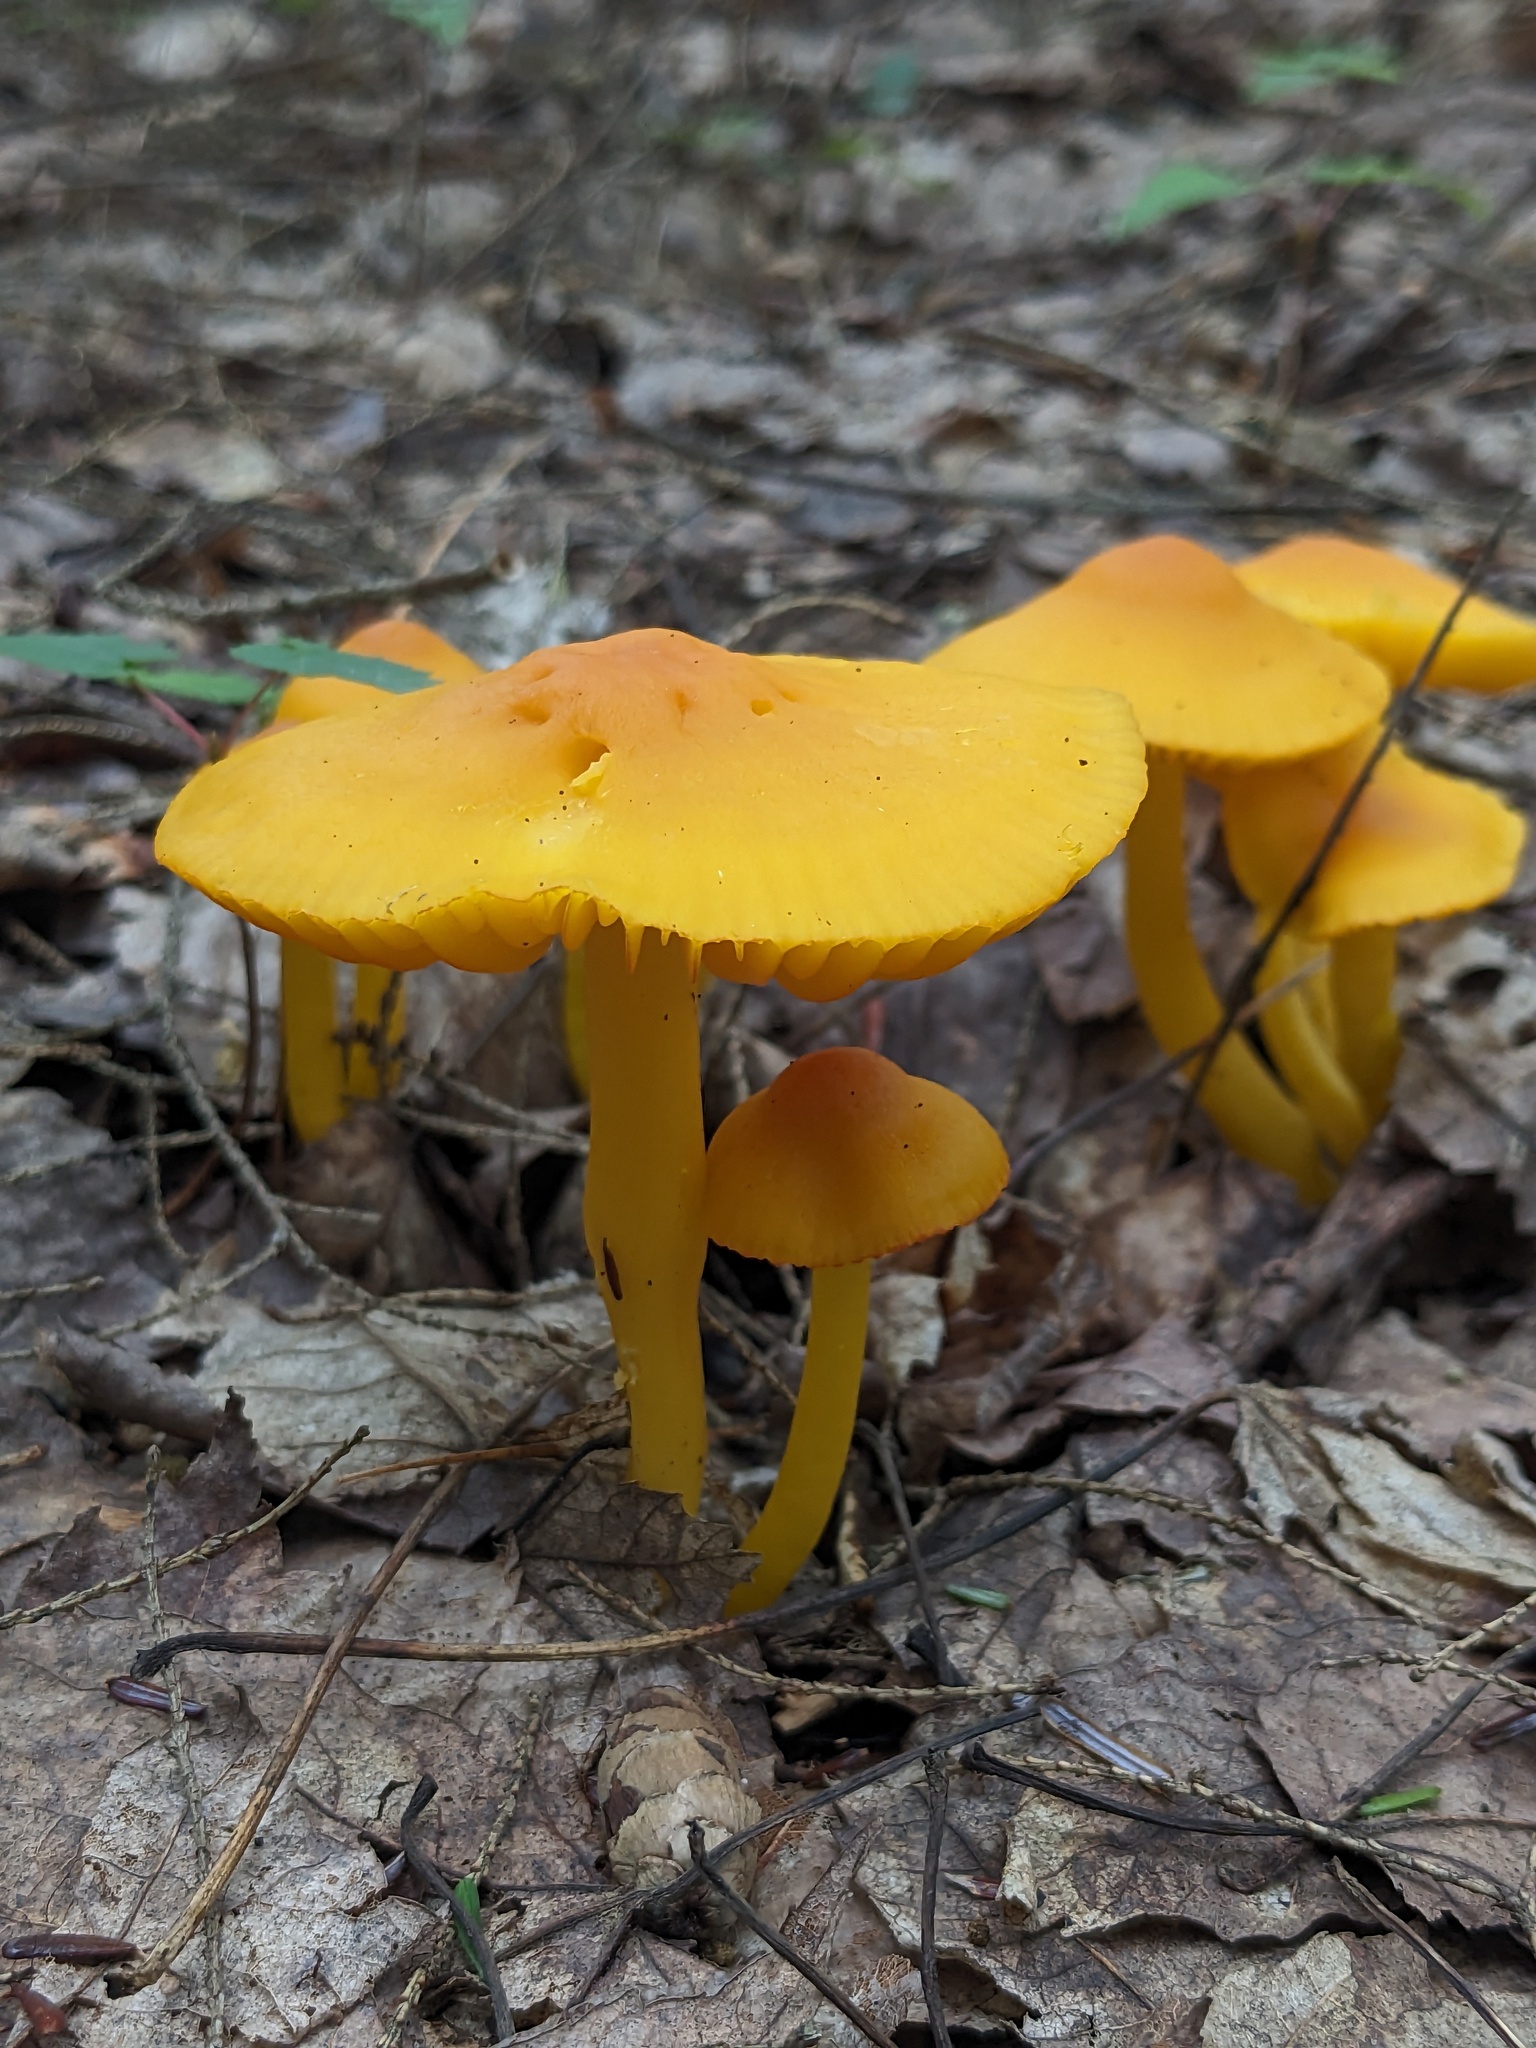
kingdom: Fungi
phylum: Basidiomycota
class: Agaricomycetes
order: Agaricales
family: Hygrophoraceae
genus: Humidicutis
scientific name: Humidicutis marginata
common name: Orange gilled waxcap
